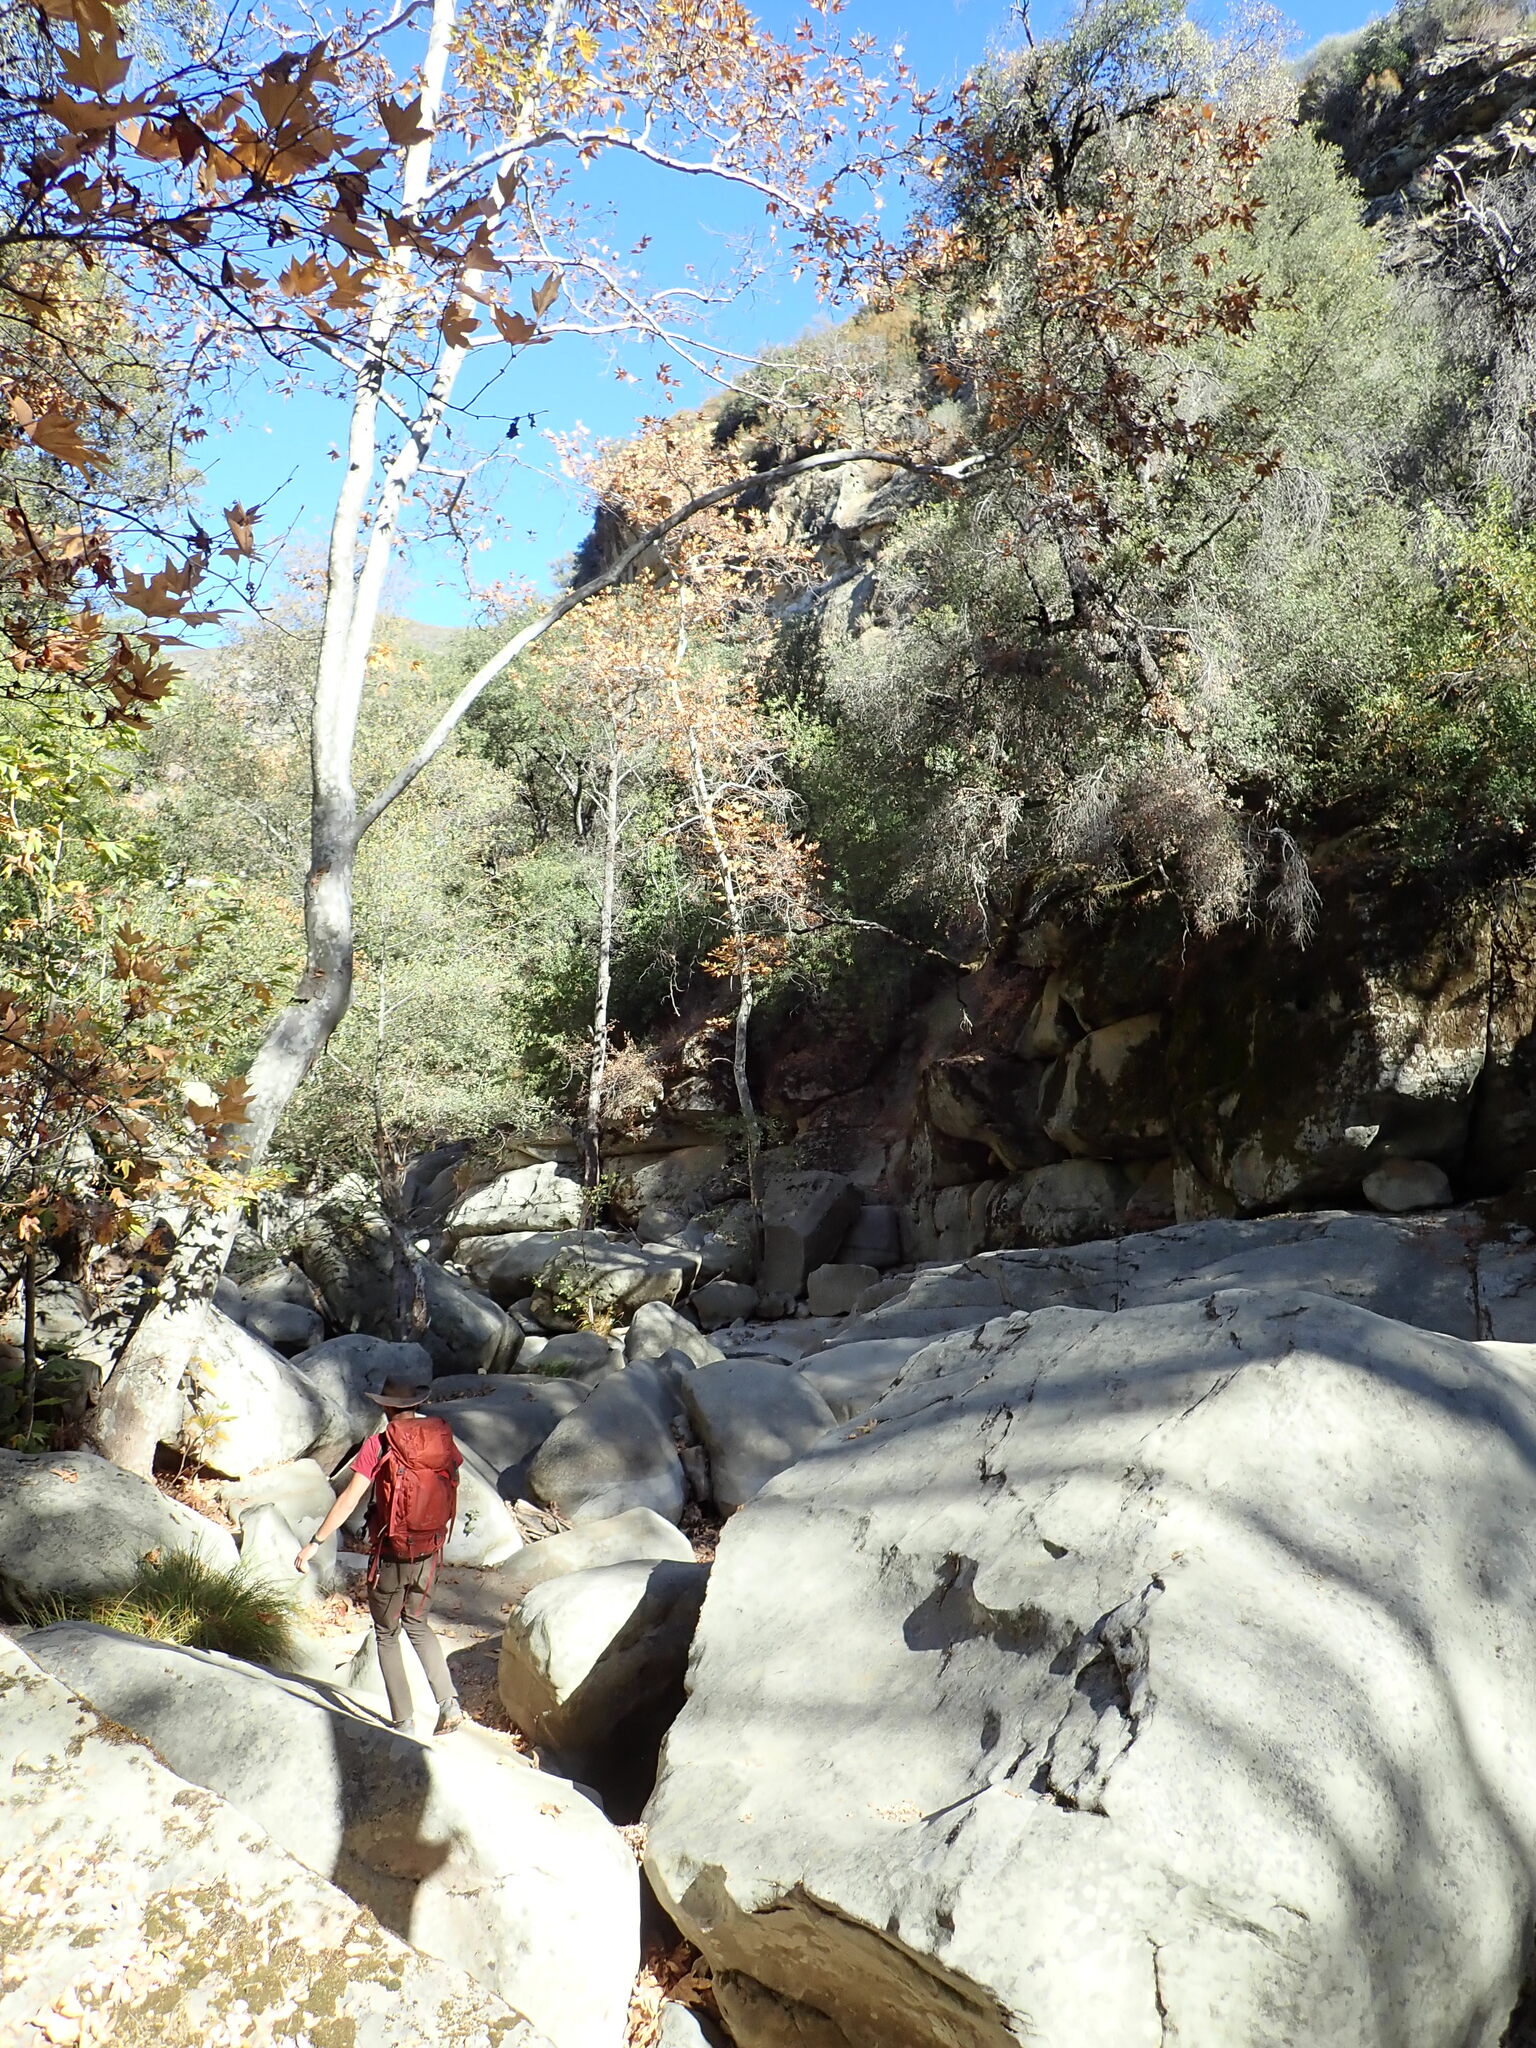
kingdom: Plantae
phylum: Tracheophyta
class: Magnoliopsida
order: Proteales
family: Platanaceae
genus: Platanus
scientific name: Platanus racemosa
